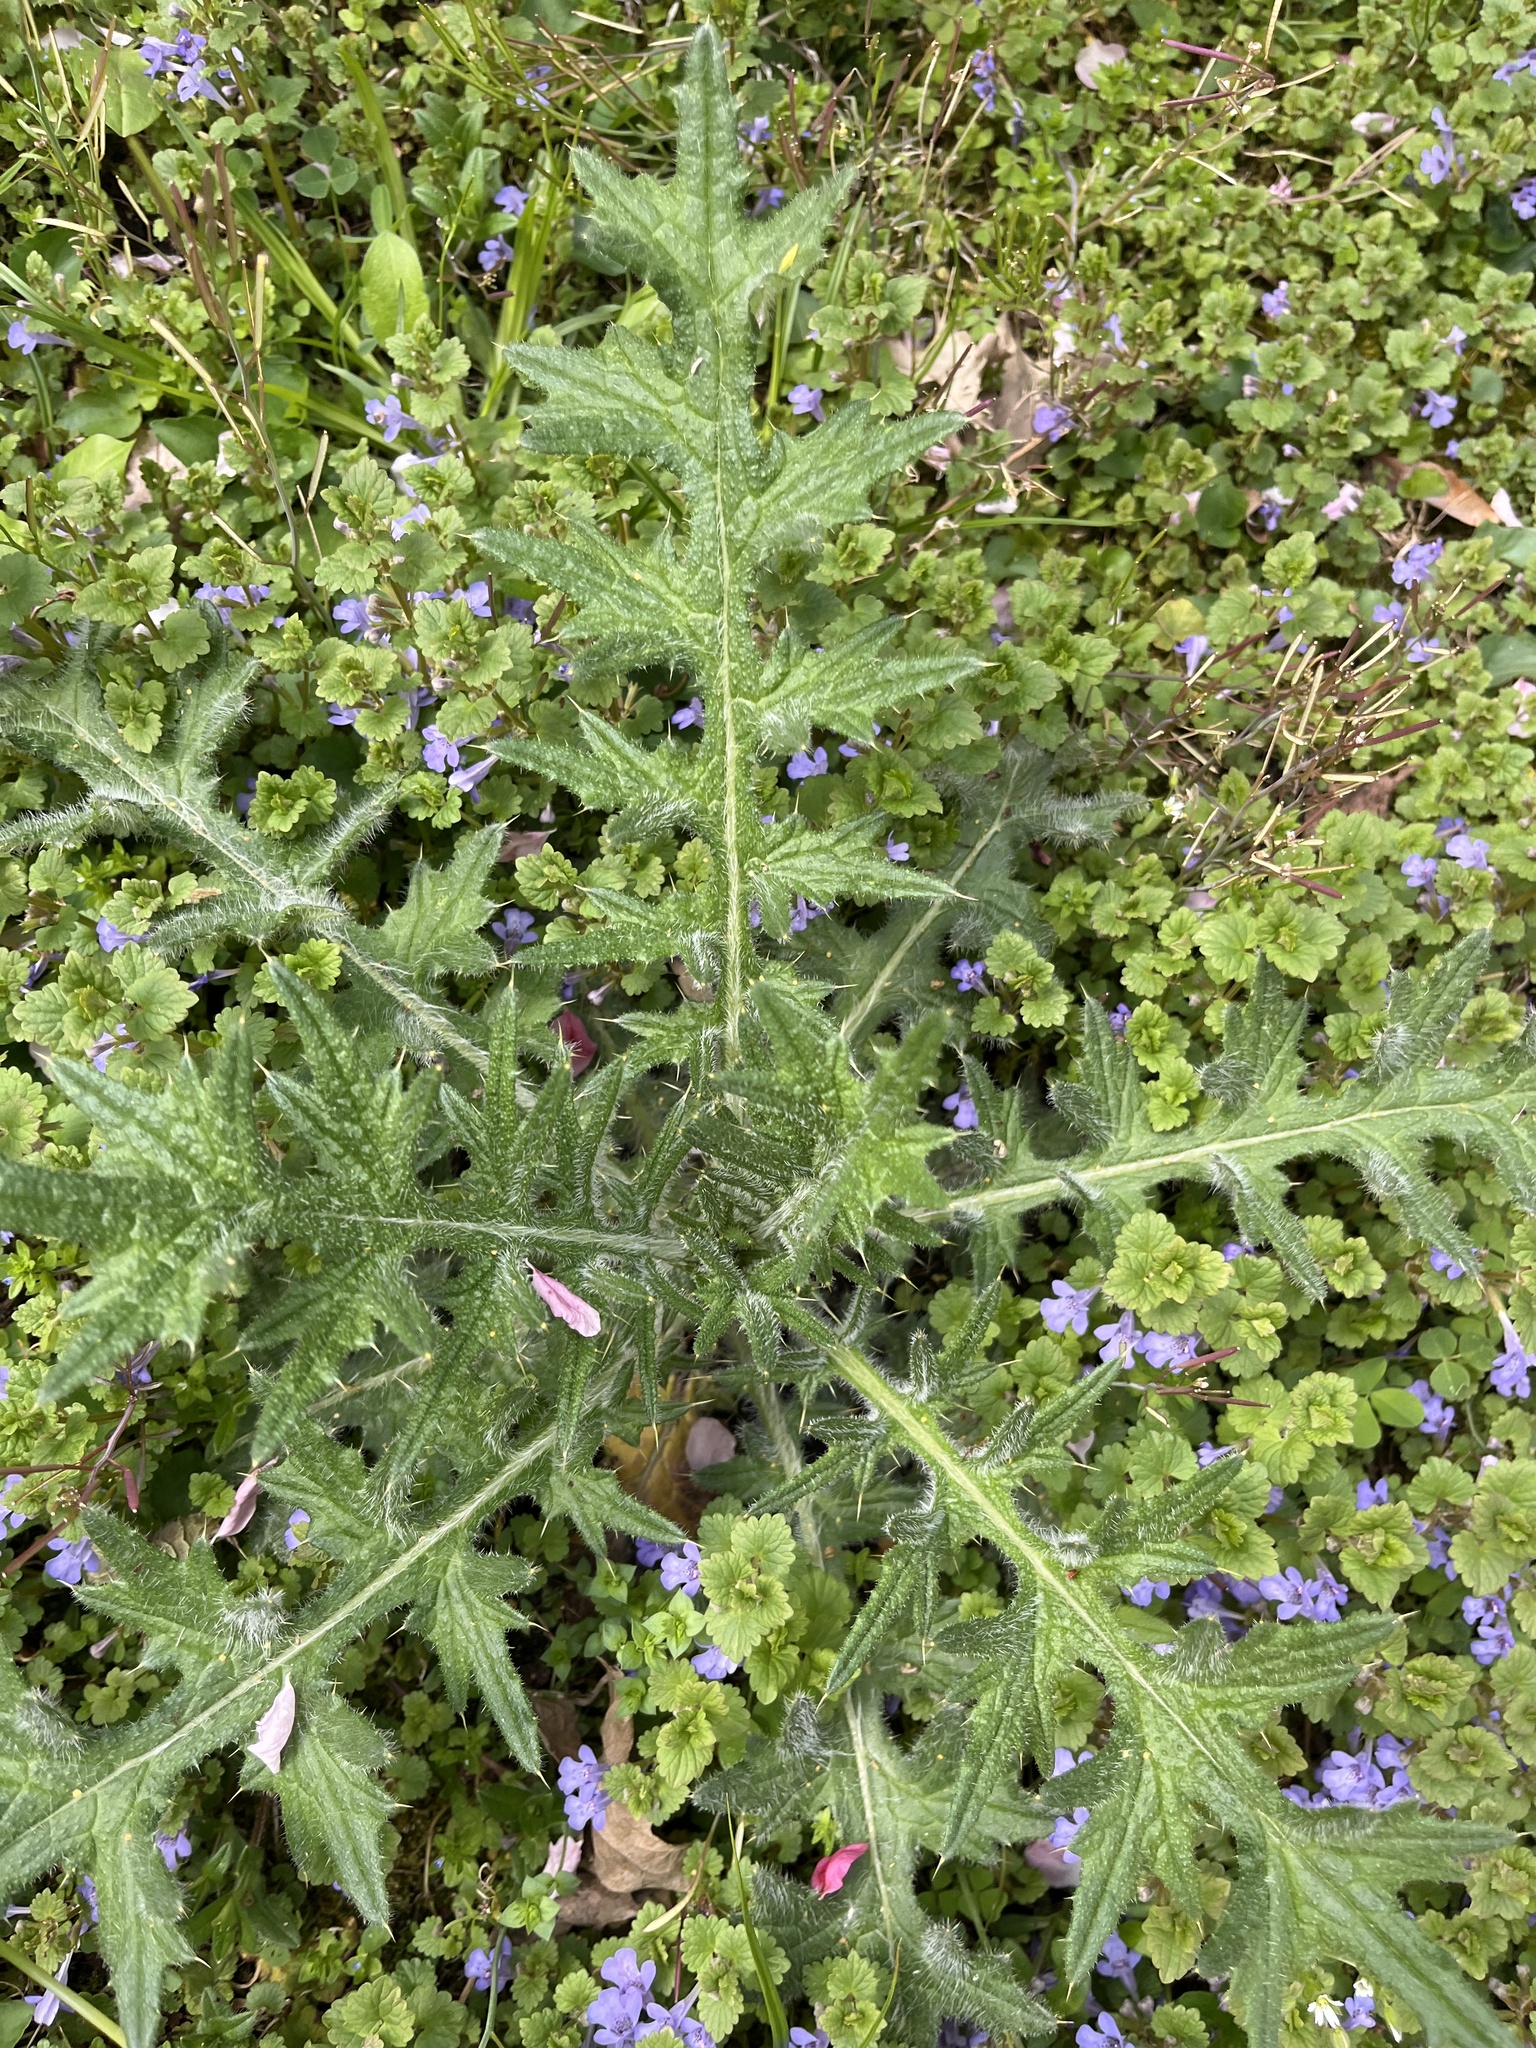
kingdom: Plantae
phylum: Tracheophyta
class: Magnoliopsida
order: Asterales
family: Asteraceae
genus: Cirsium
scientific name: Cirsium vulgare
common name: Bull thistle
